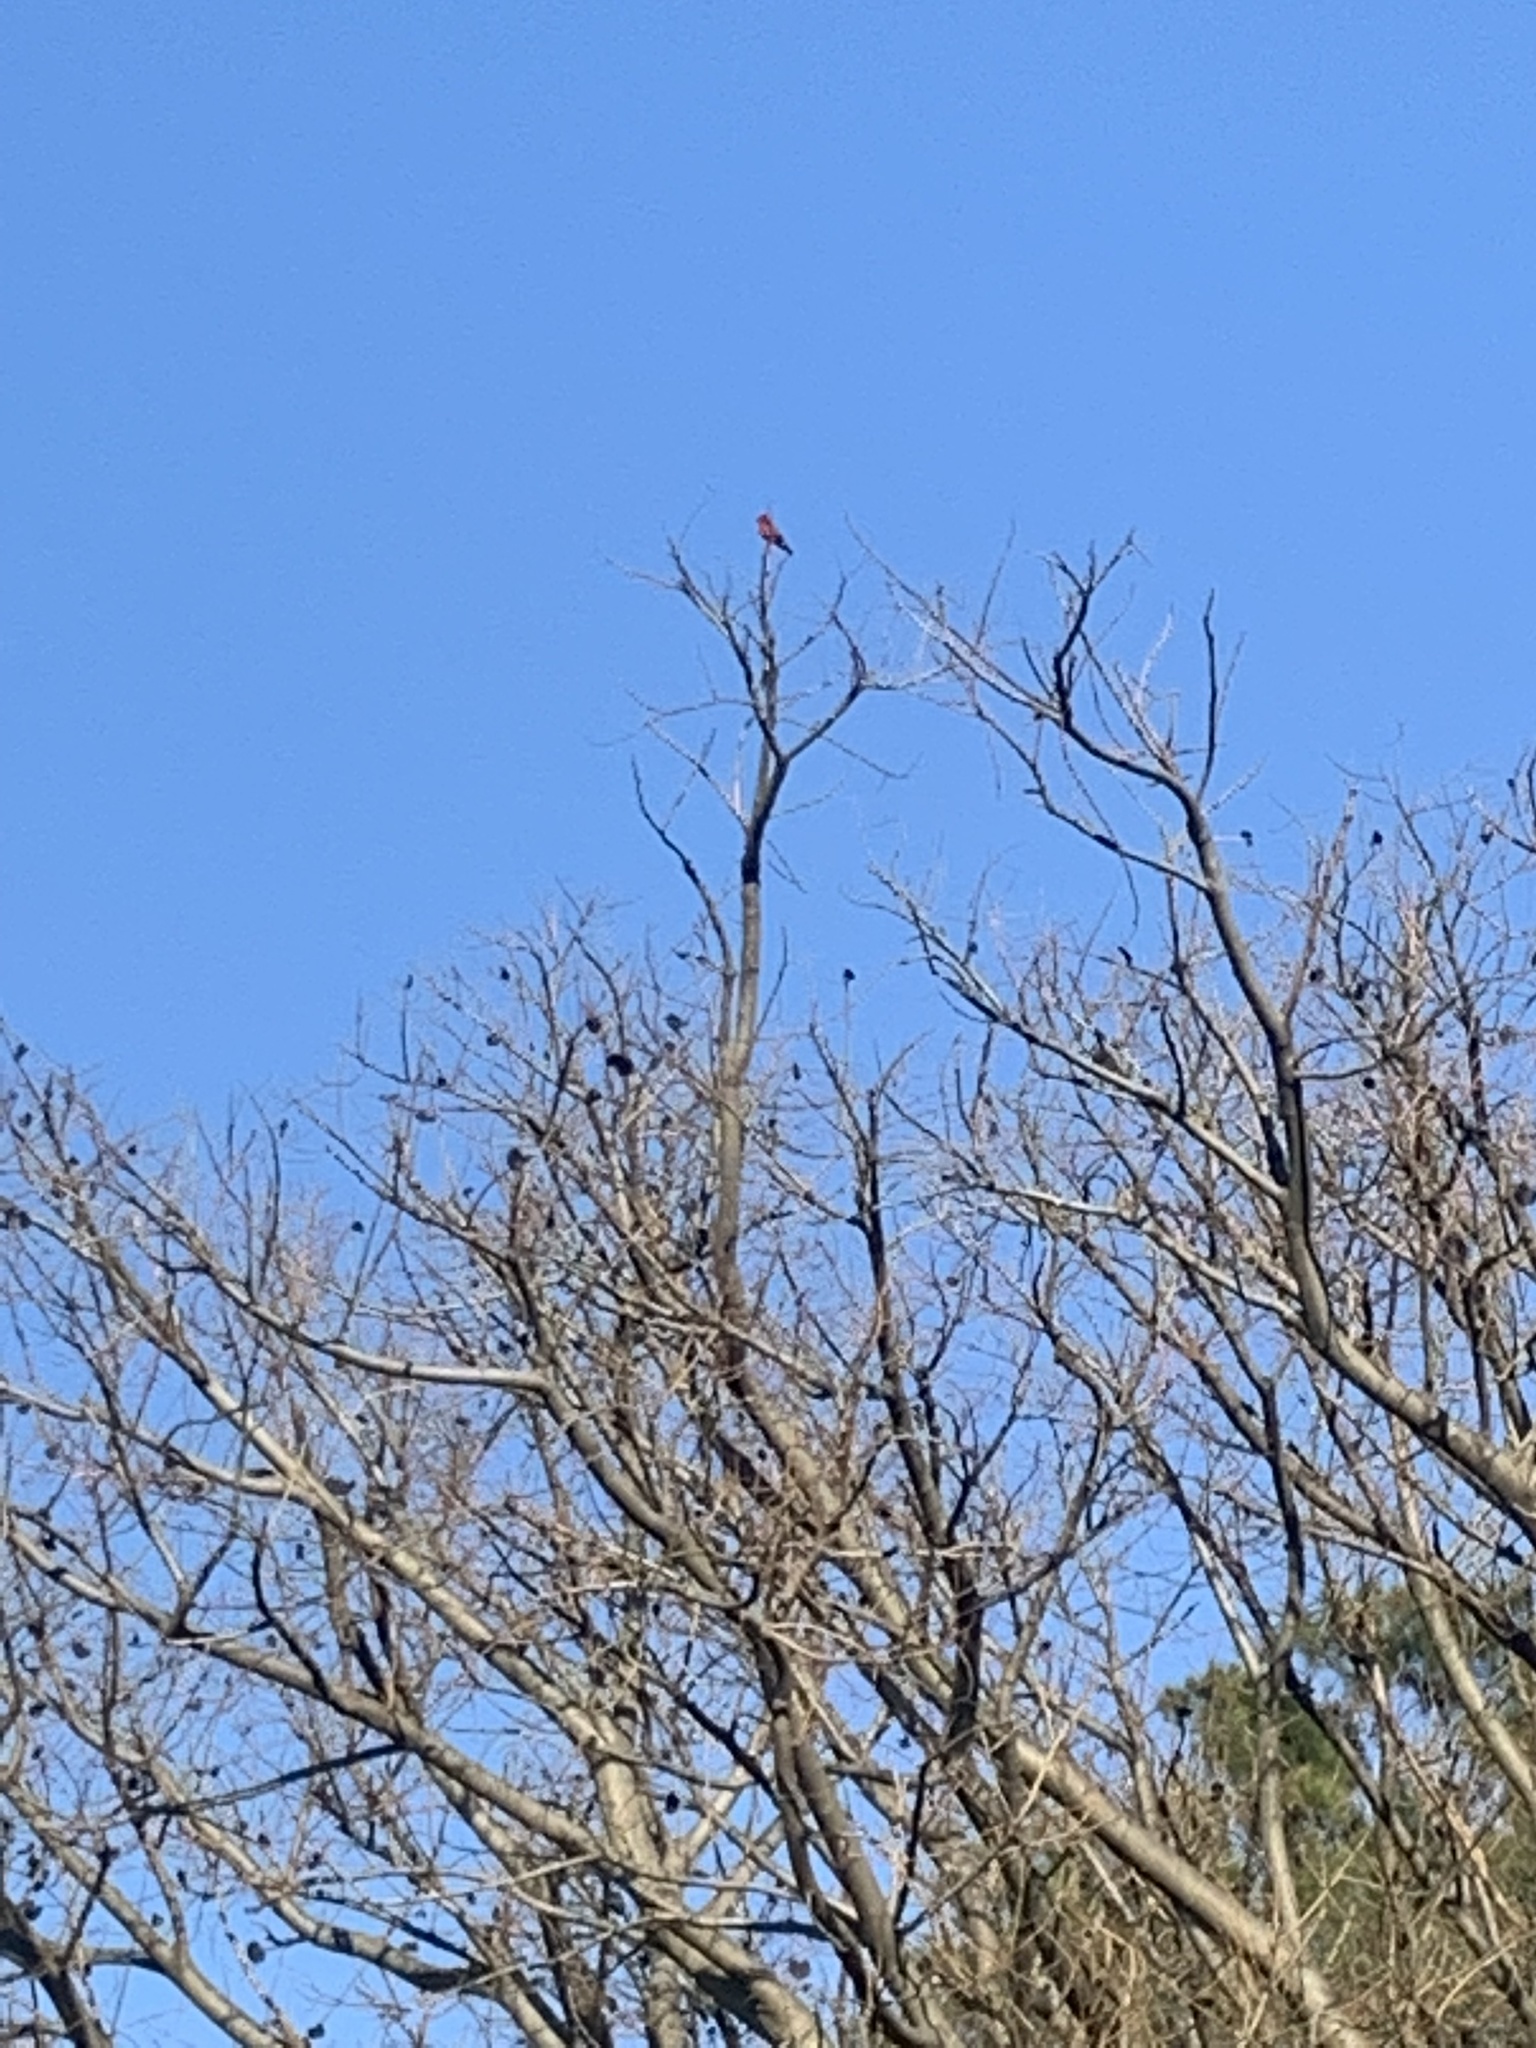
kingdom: Animalia
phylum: Chordata
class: Aves
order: Passeriformes
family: Tyrannidae
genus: Pyrocephalus
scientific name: Pyrocephalus rubinus
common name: Vermilion flycatcher
